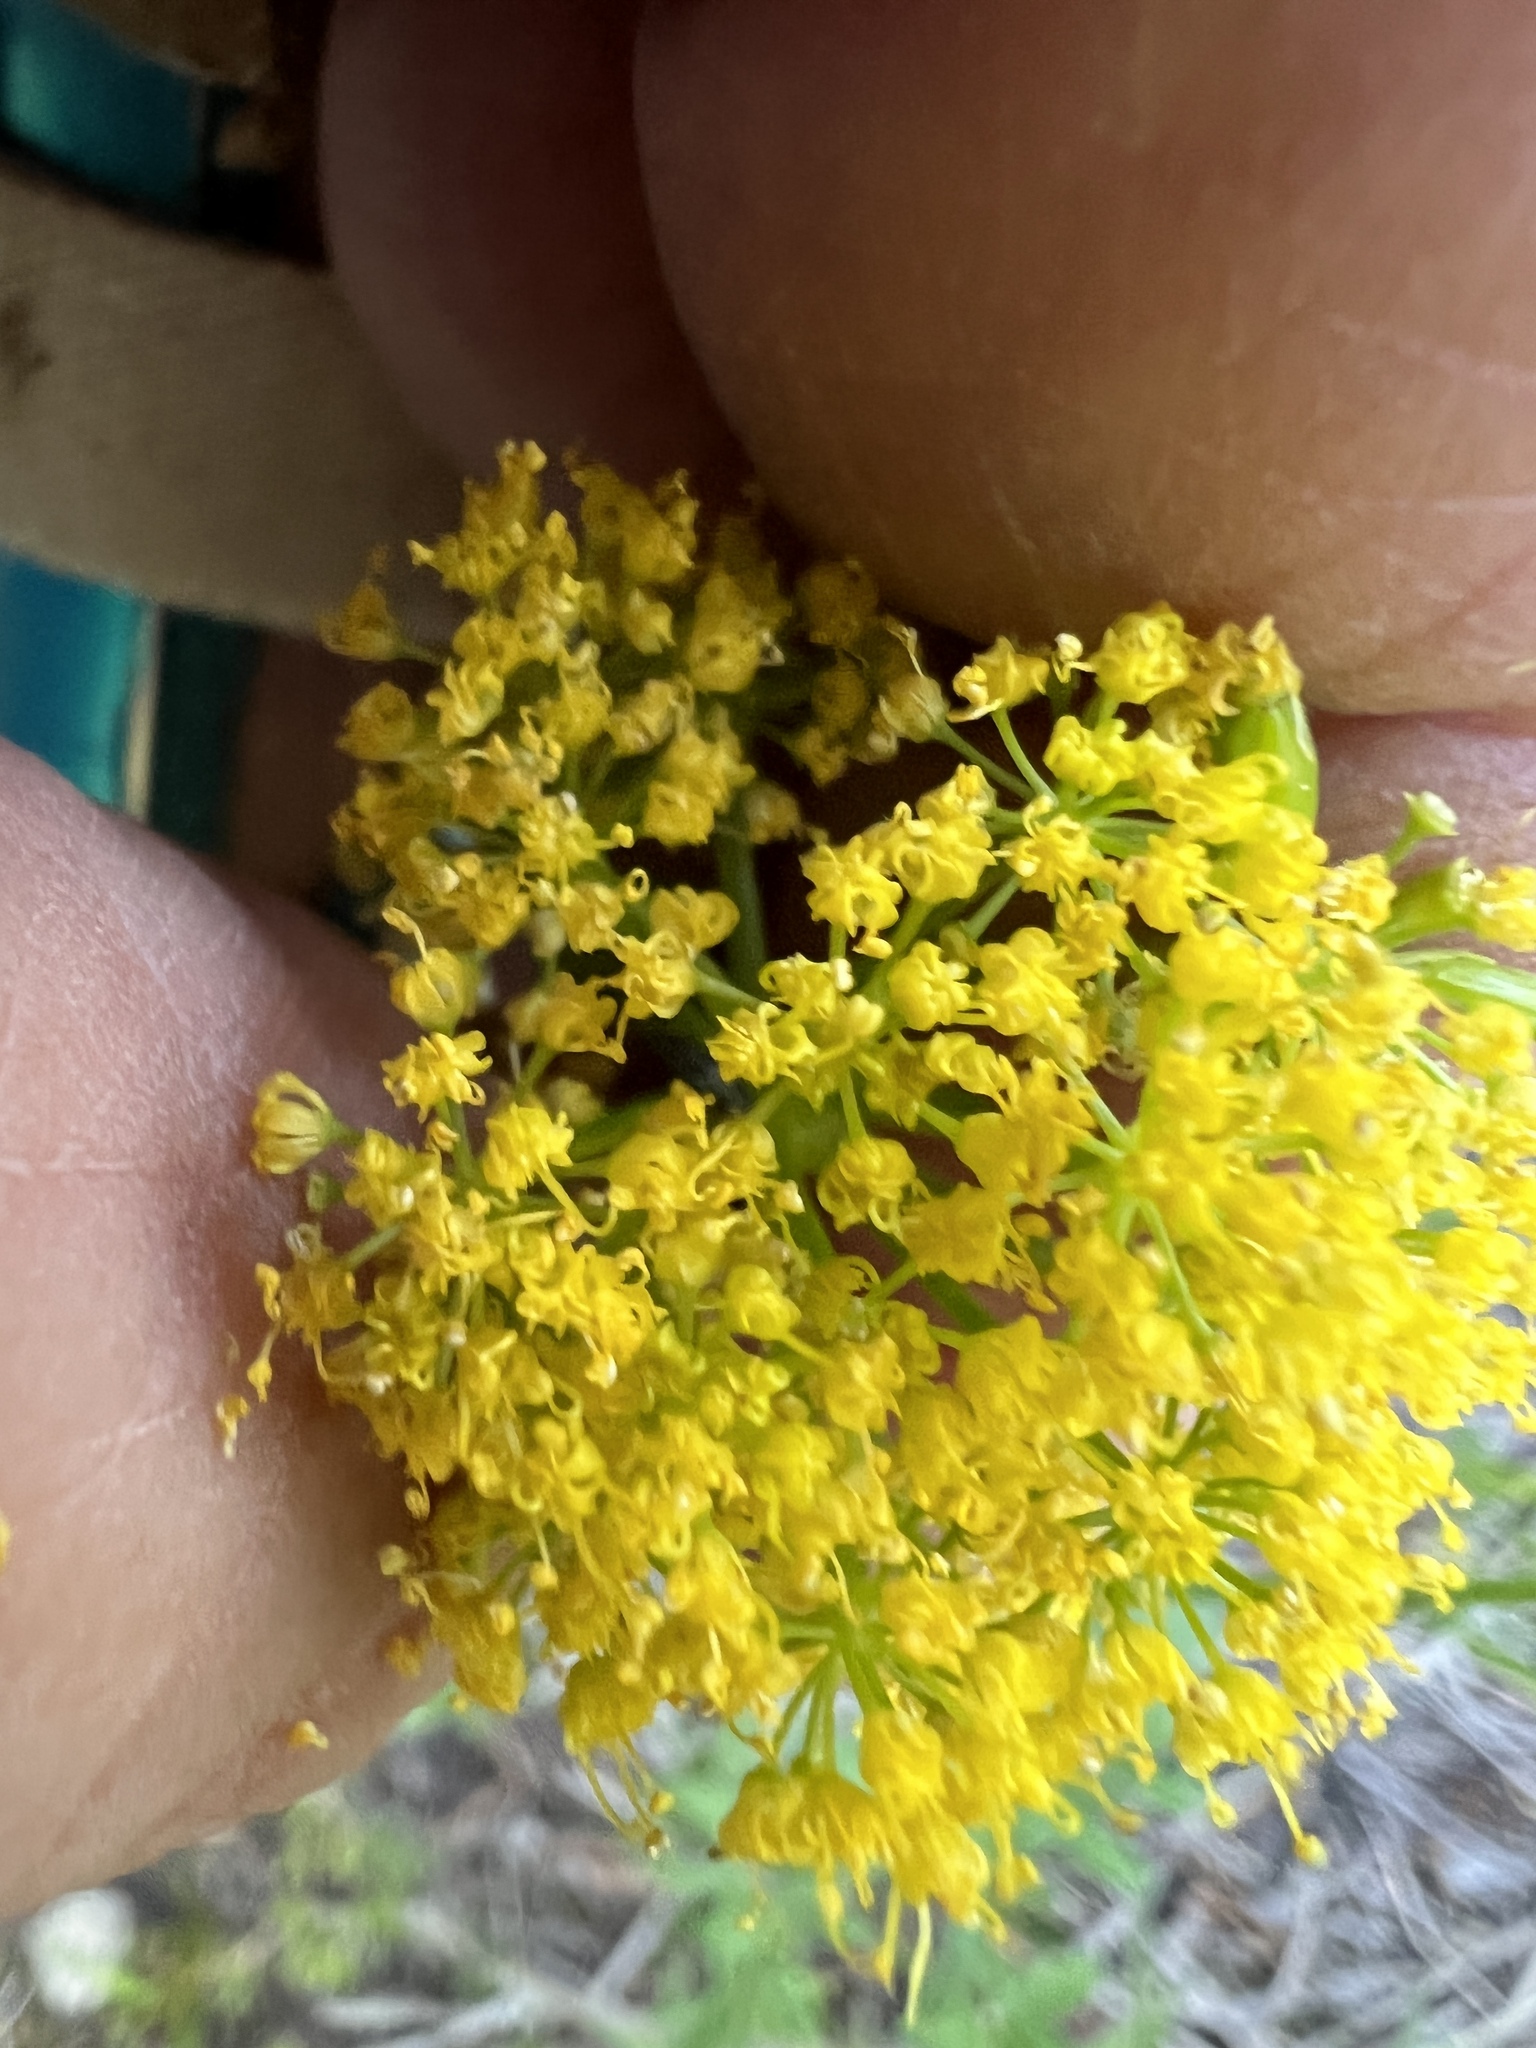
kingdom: Plantae
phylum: Tracheophyta
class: Magnoliopsida
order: Apiales
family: Apiaceae
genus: Lomatium
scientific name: Lomatium brandegeei
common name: Brandegee's desert-parsley
